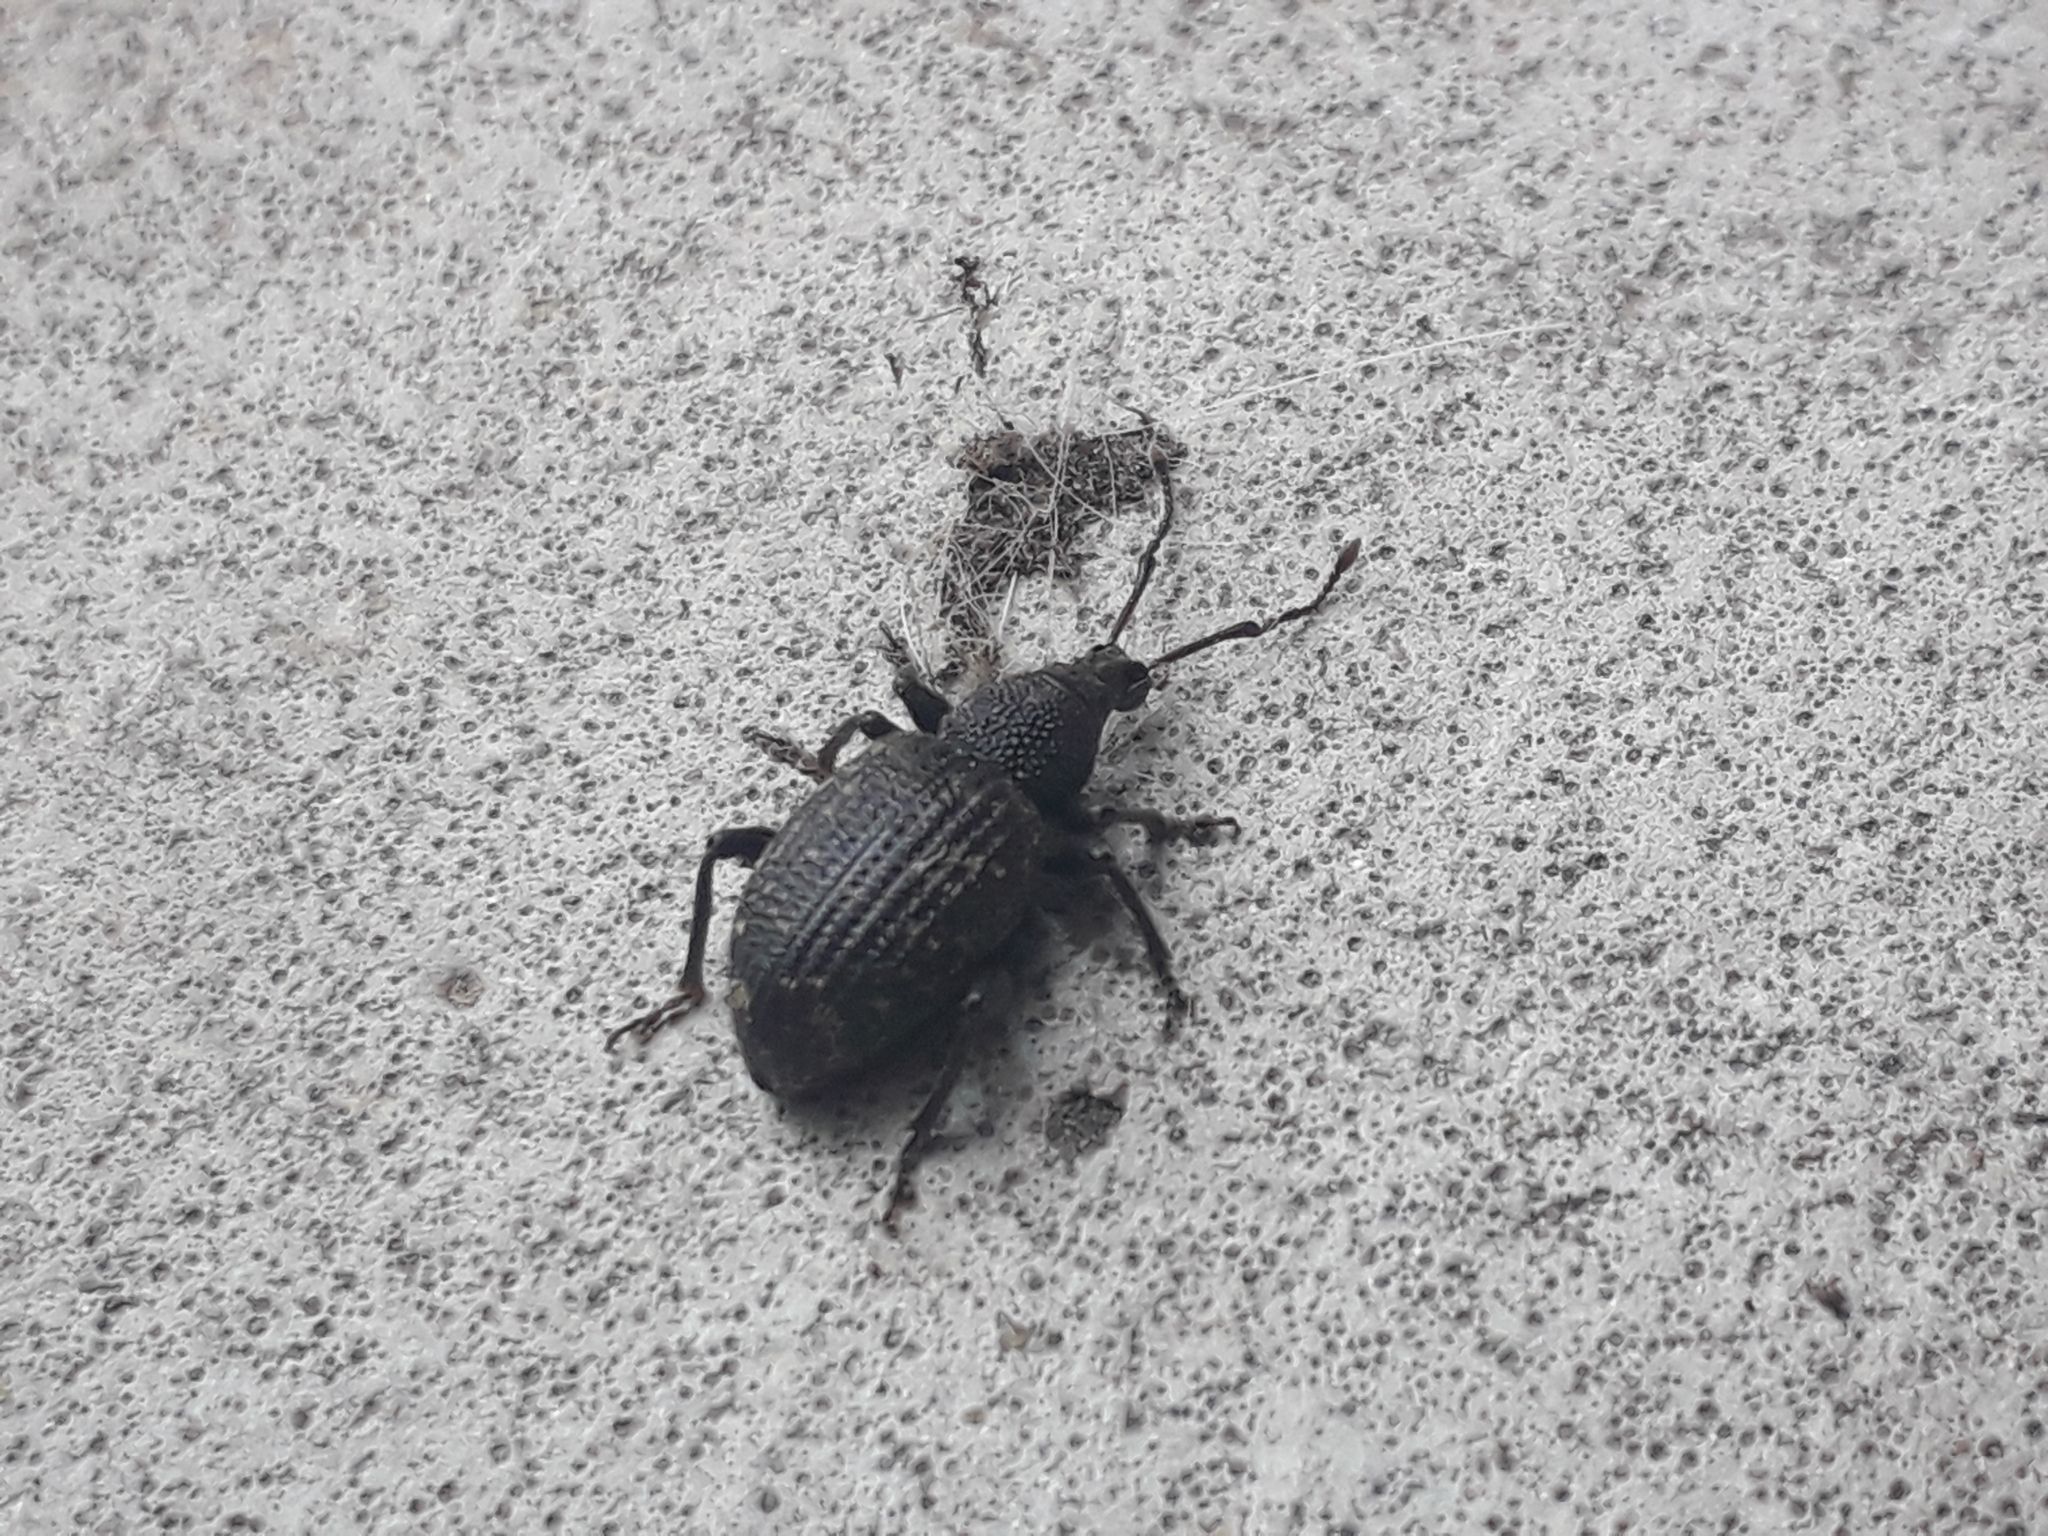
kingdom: Animalia
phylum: Arthropoda
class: Insecta
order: Coleoptera
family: Curculionidae
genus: Otiorhynchus
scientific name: Otiorhynchus sulcatus
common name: Black vine weevil
